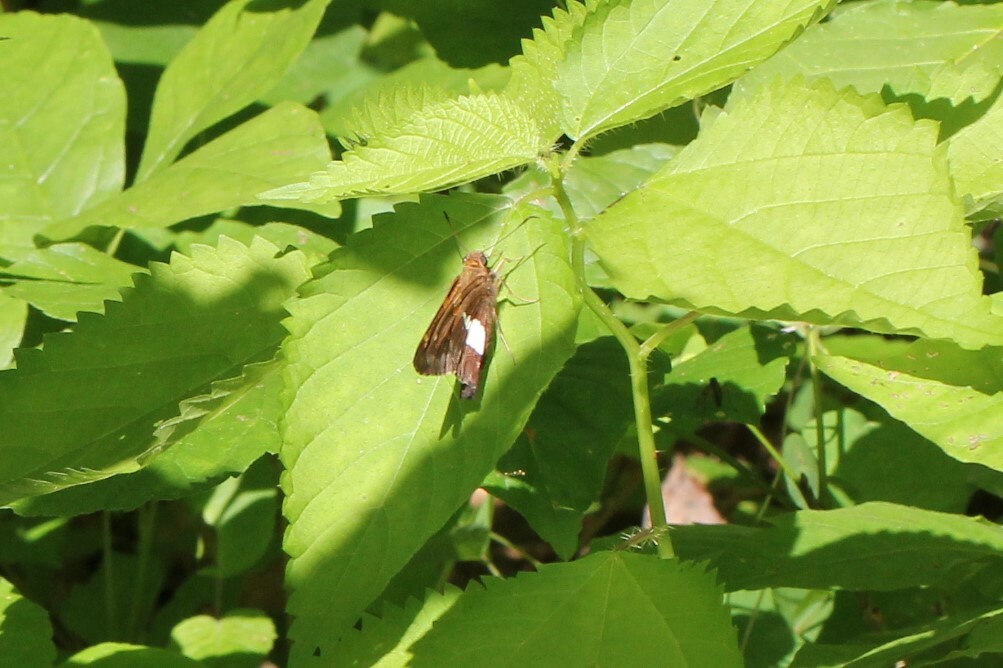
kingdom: Animalia
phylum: Arthropoda
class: Insecta
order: Lepidoptera
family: Hesperiidae
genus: Epargyreus
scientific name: Epargyreus clarus
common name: Silver-spotted skipper
